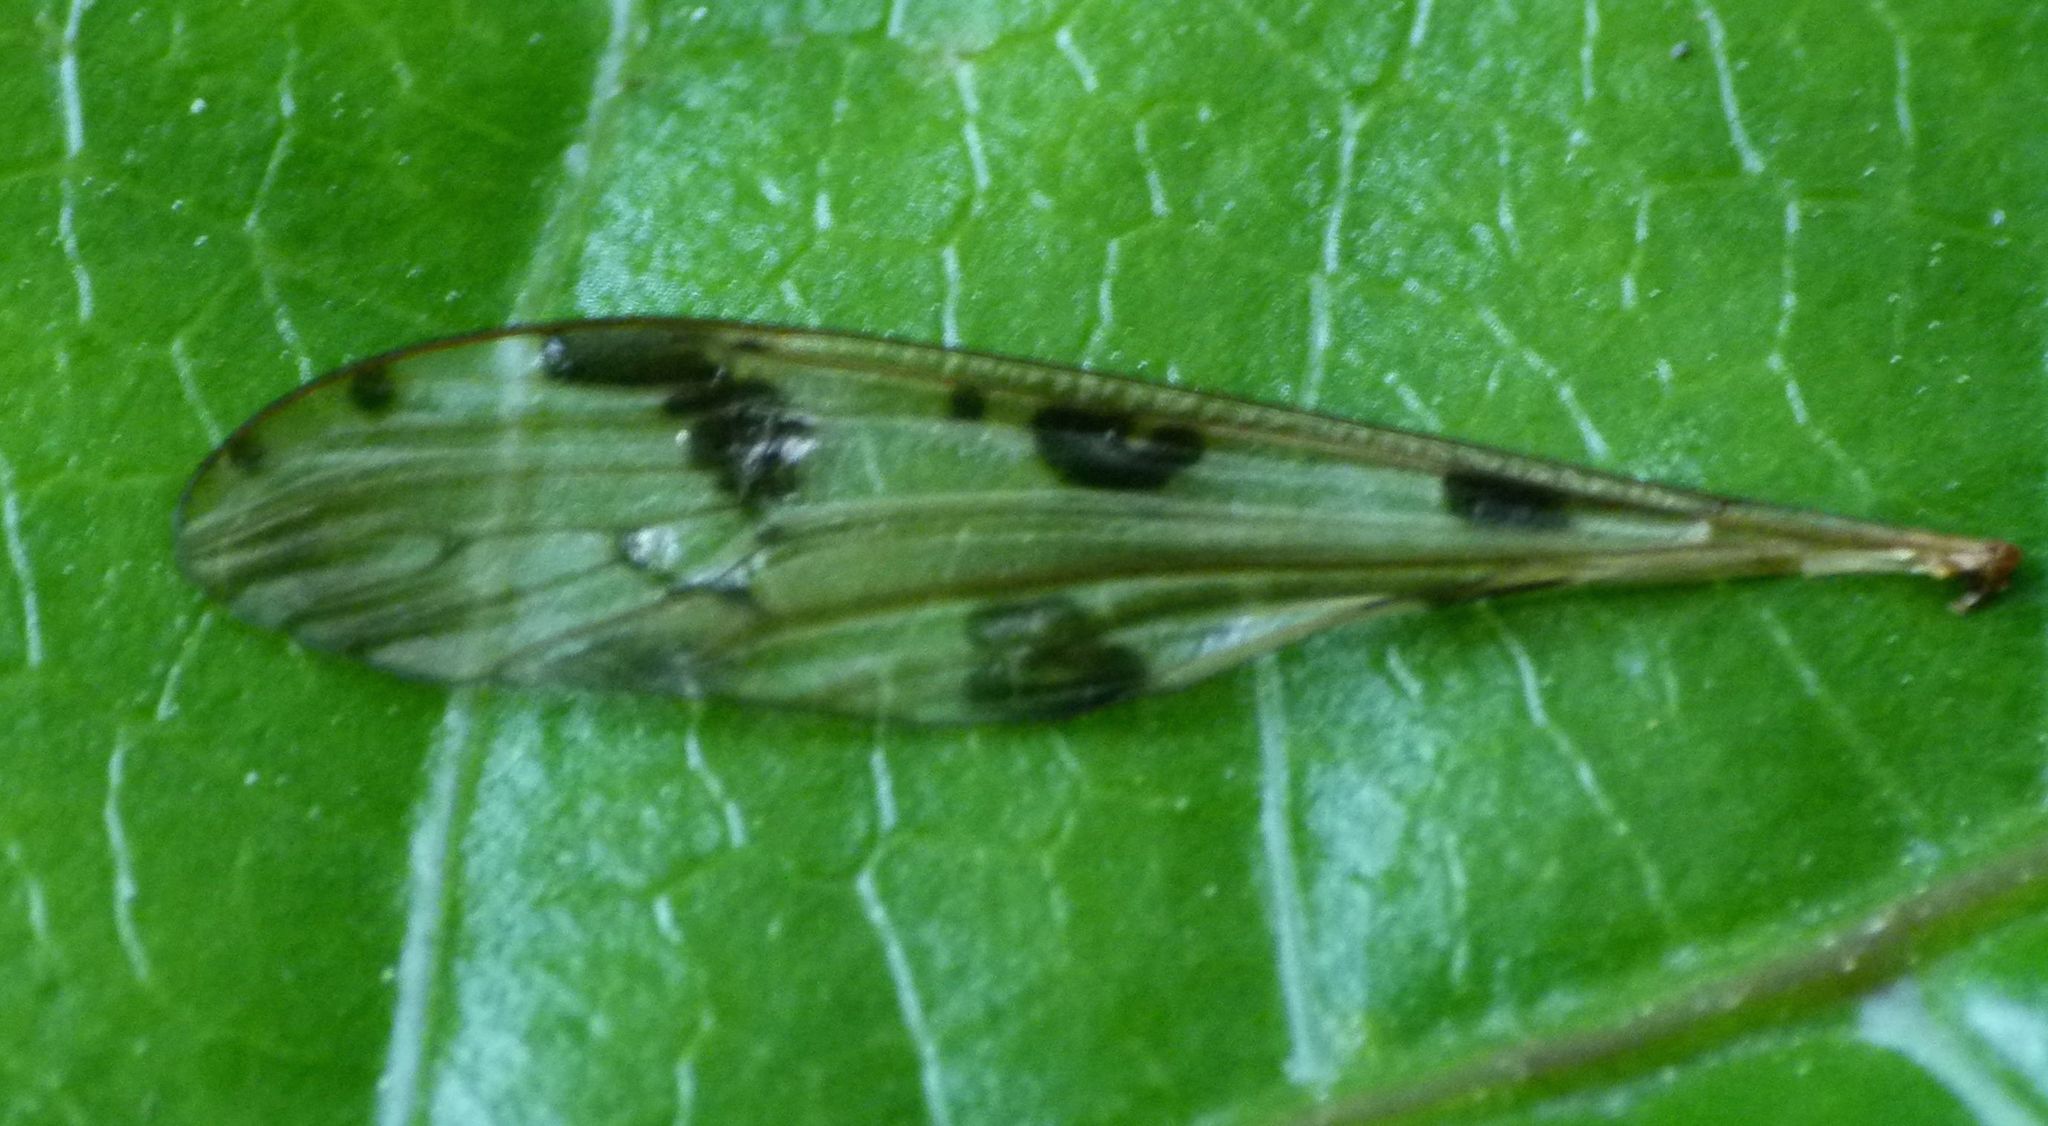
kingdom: Animalia
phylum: Arthropoda
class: Insecta
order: Diptera
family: Limoniidae
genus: Gynoplistia
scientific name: Gynoplistia notata
